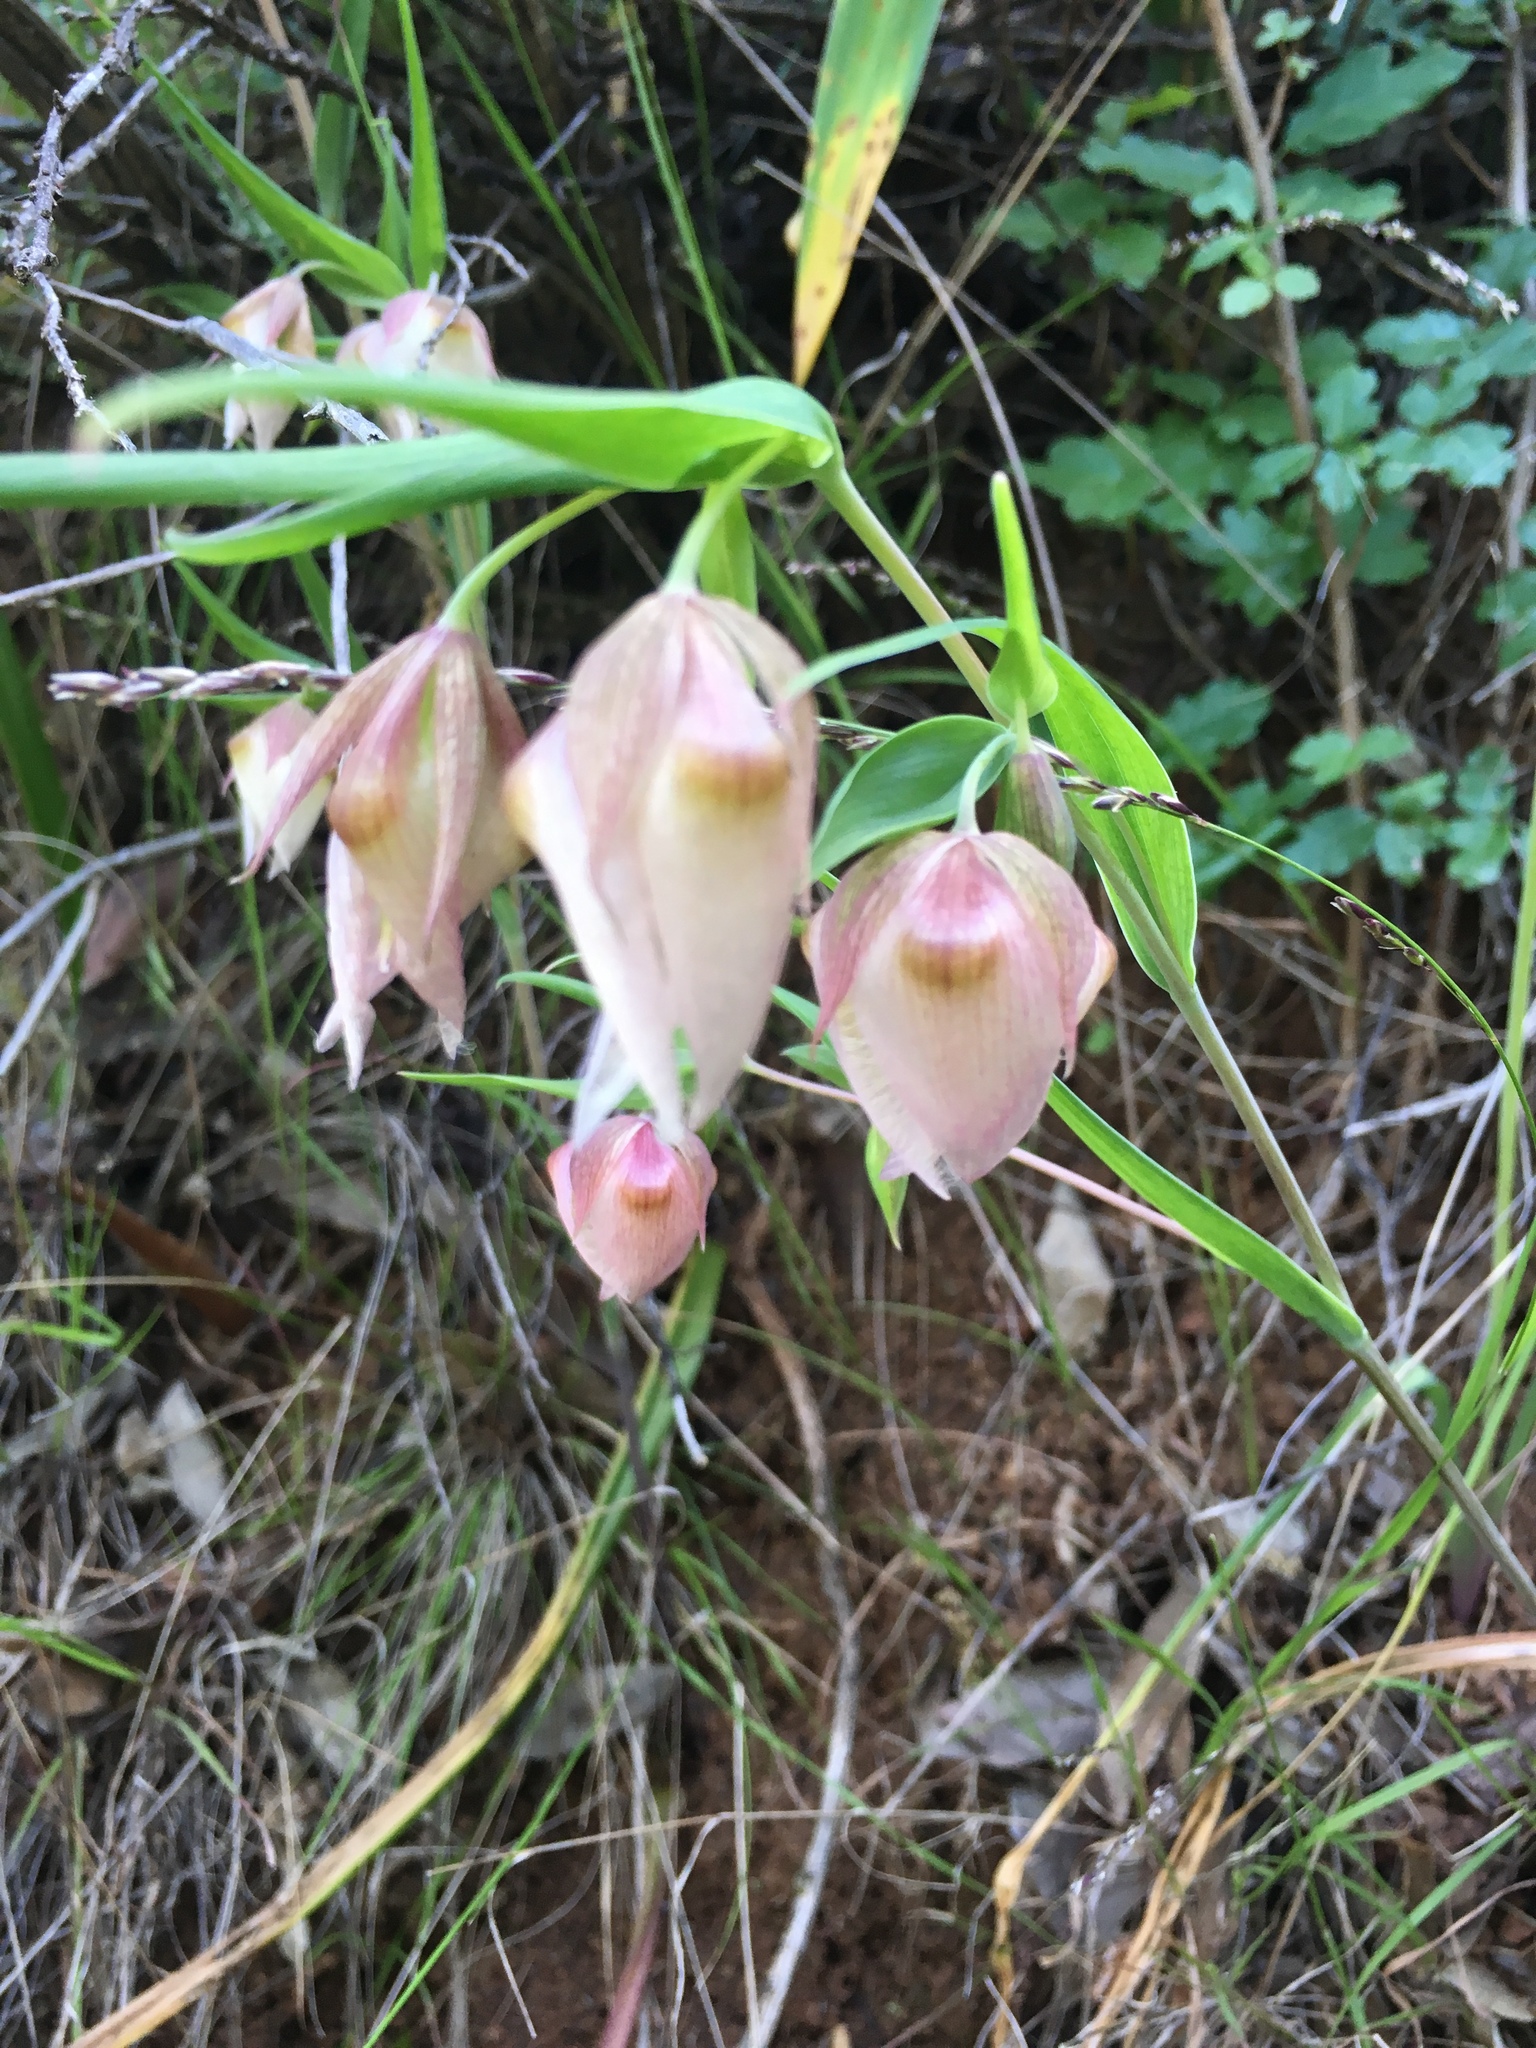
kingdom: Plantae
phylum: Tracheophyta
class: Liliopsida
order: Liliales
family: Liliaceae
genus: Calochortus
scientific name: Calochortus albus
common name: Fairy-lantern
